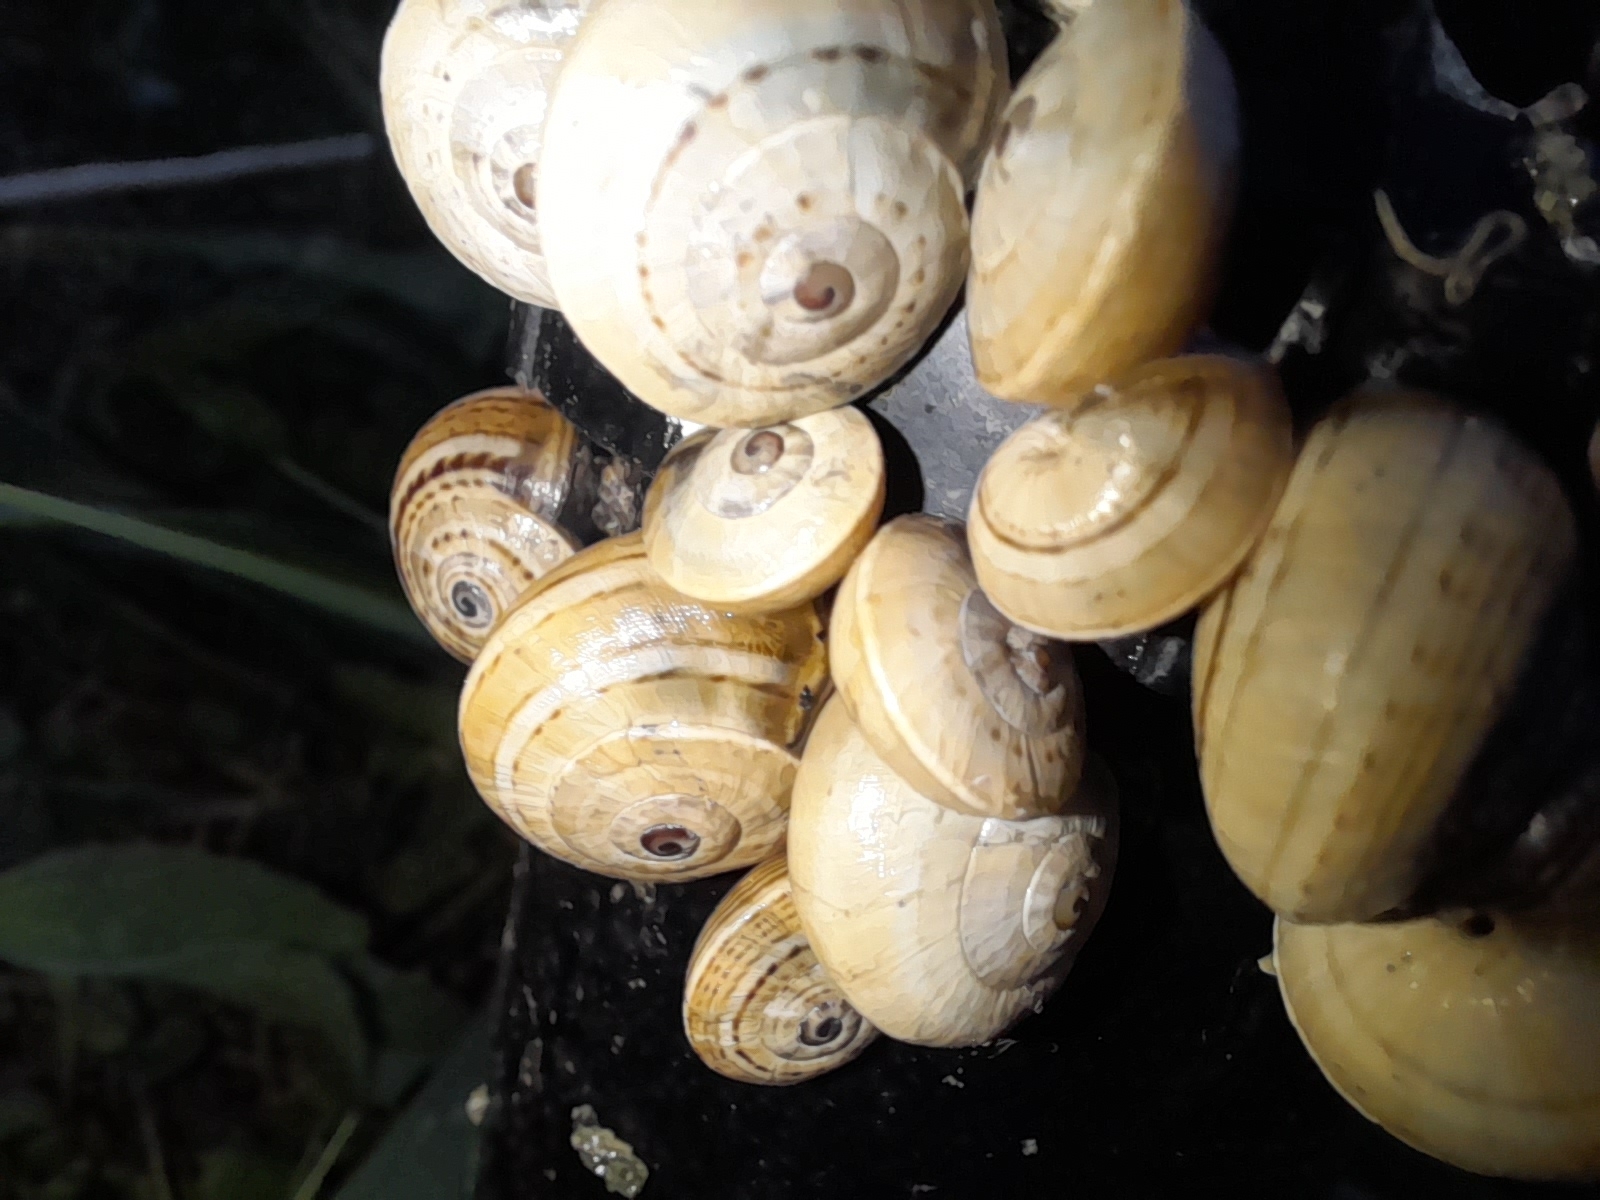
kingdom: Animalia
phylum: Mollusca
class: Gastropoda
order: Stylommatophora
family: Helicidae
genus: Theba
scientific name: Theba pisana
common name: White snail
